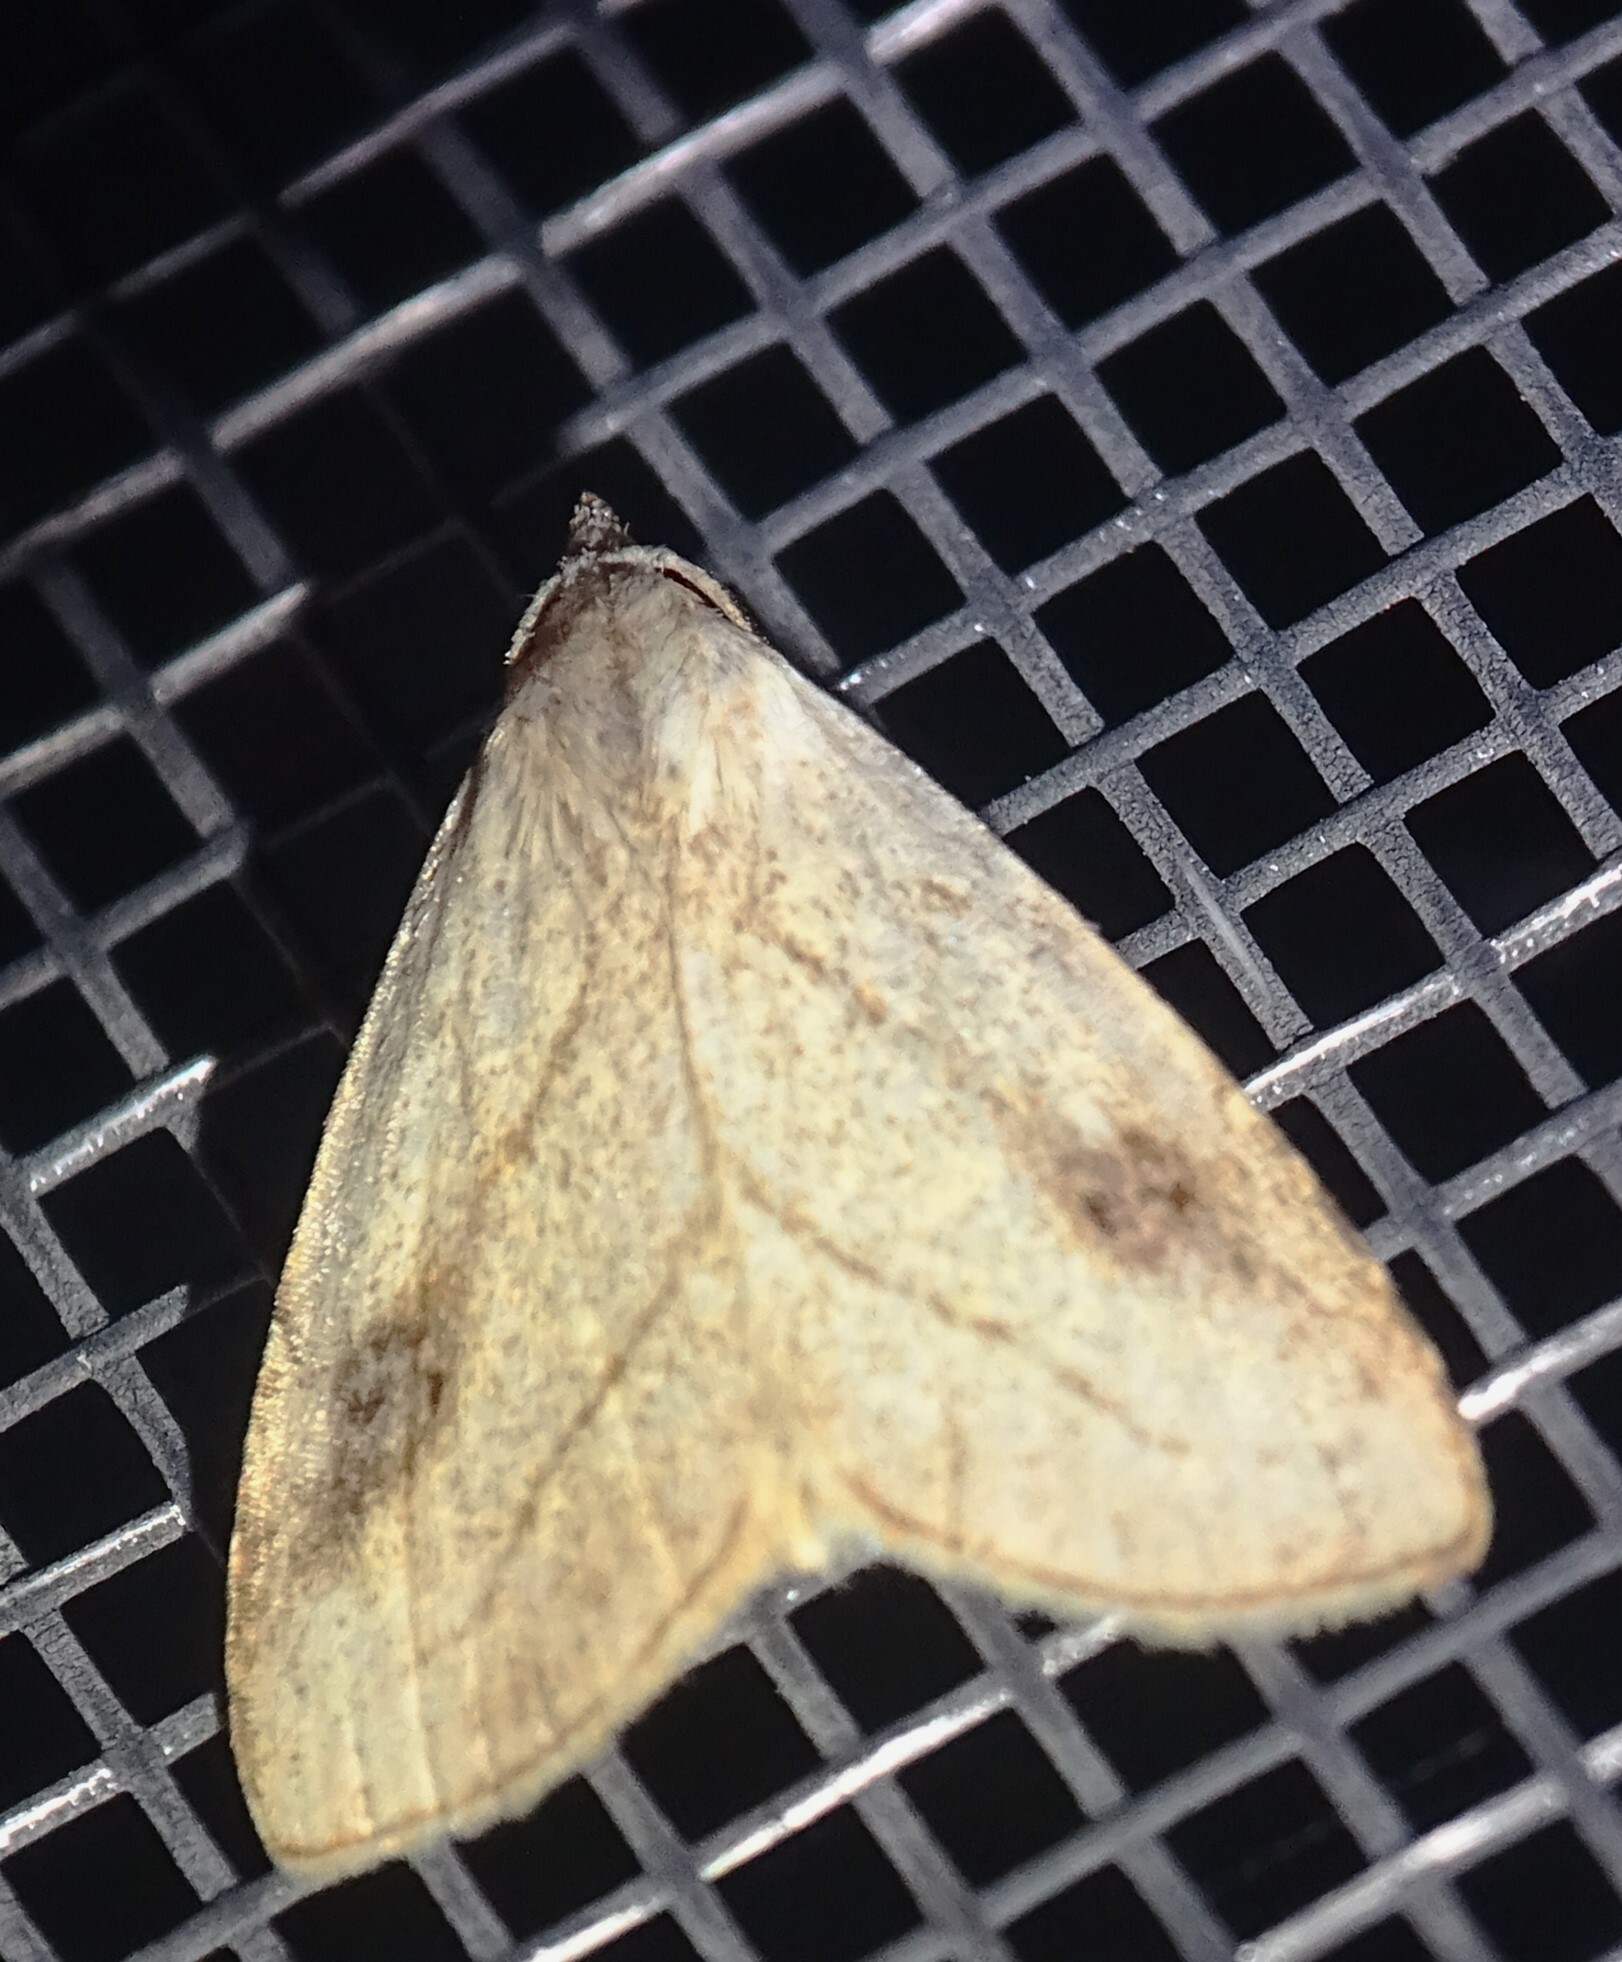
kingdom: Animalia
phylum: Arthropoda
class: Insecta
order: Lepidoptera
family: Erebidae
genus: Rivula
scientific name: Rivula propinqualis
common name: Spotted grass moth
